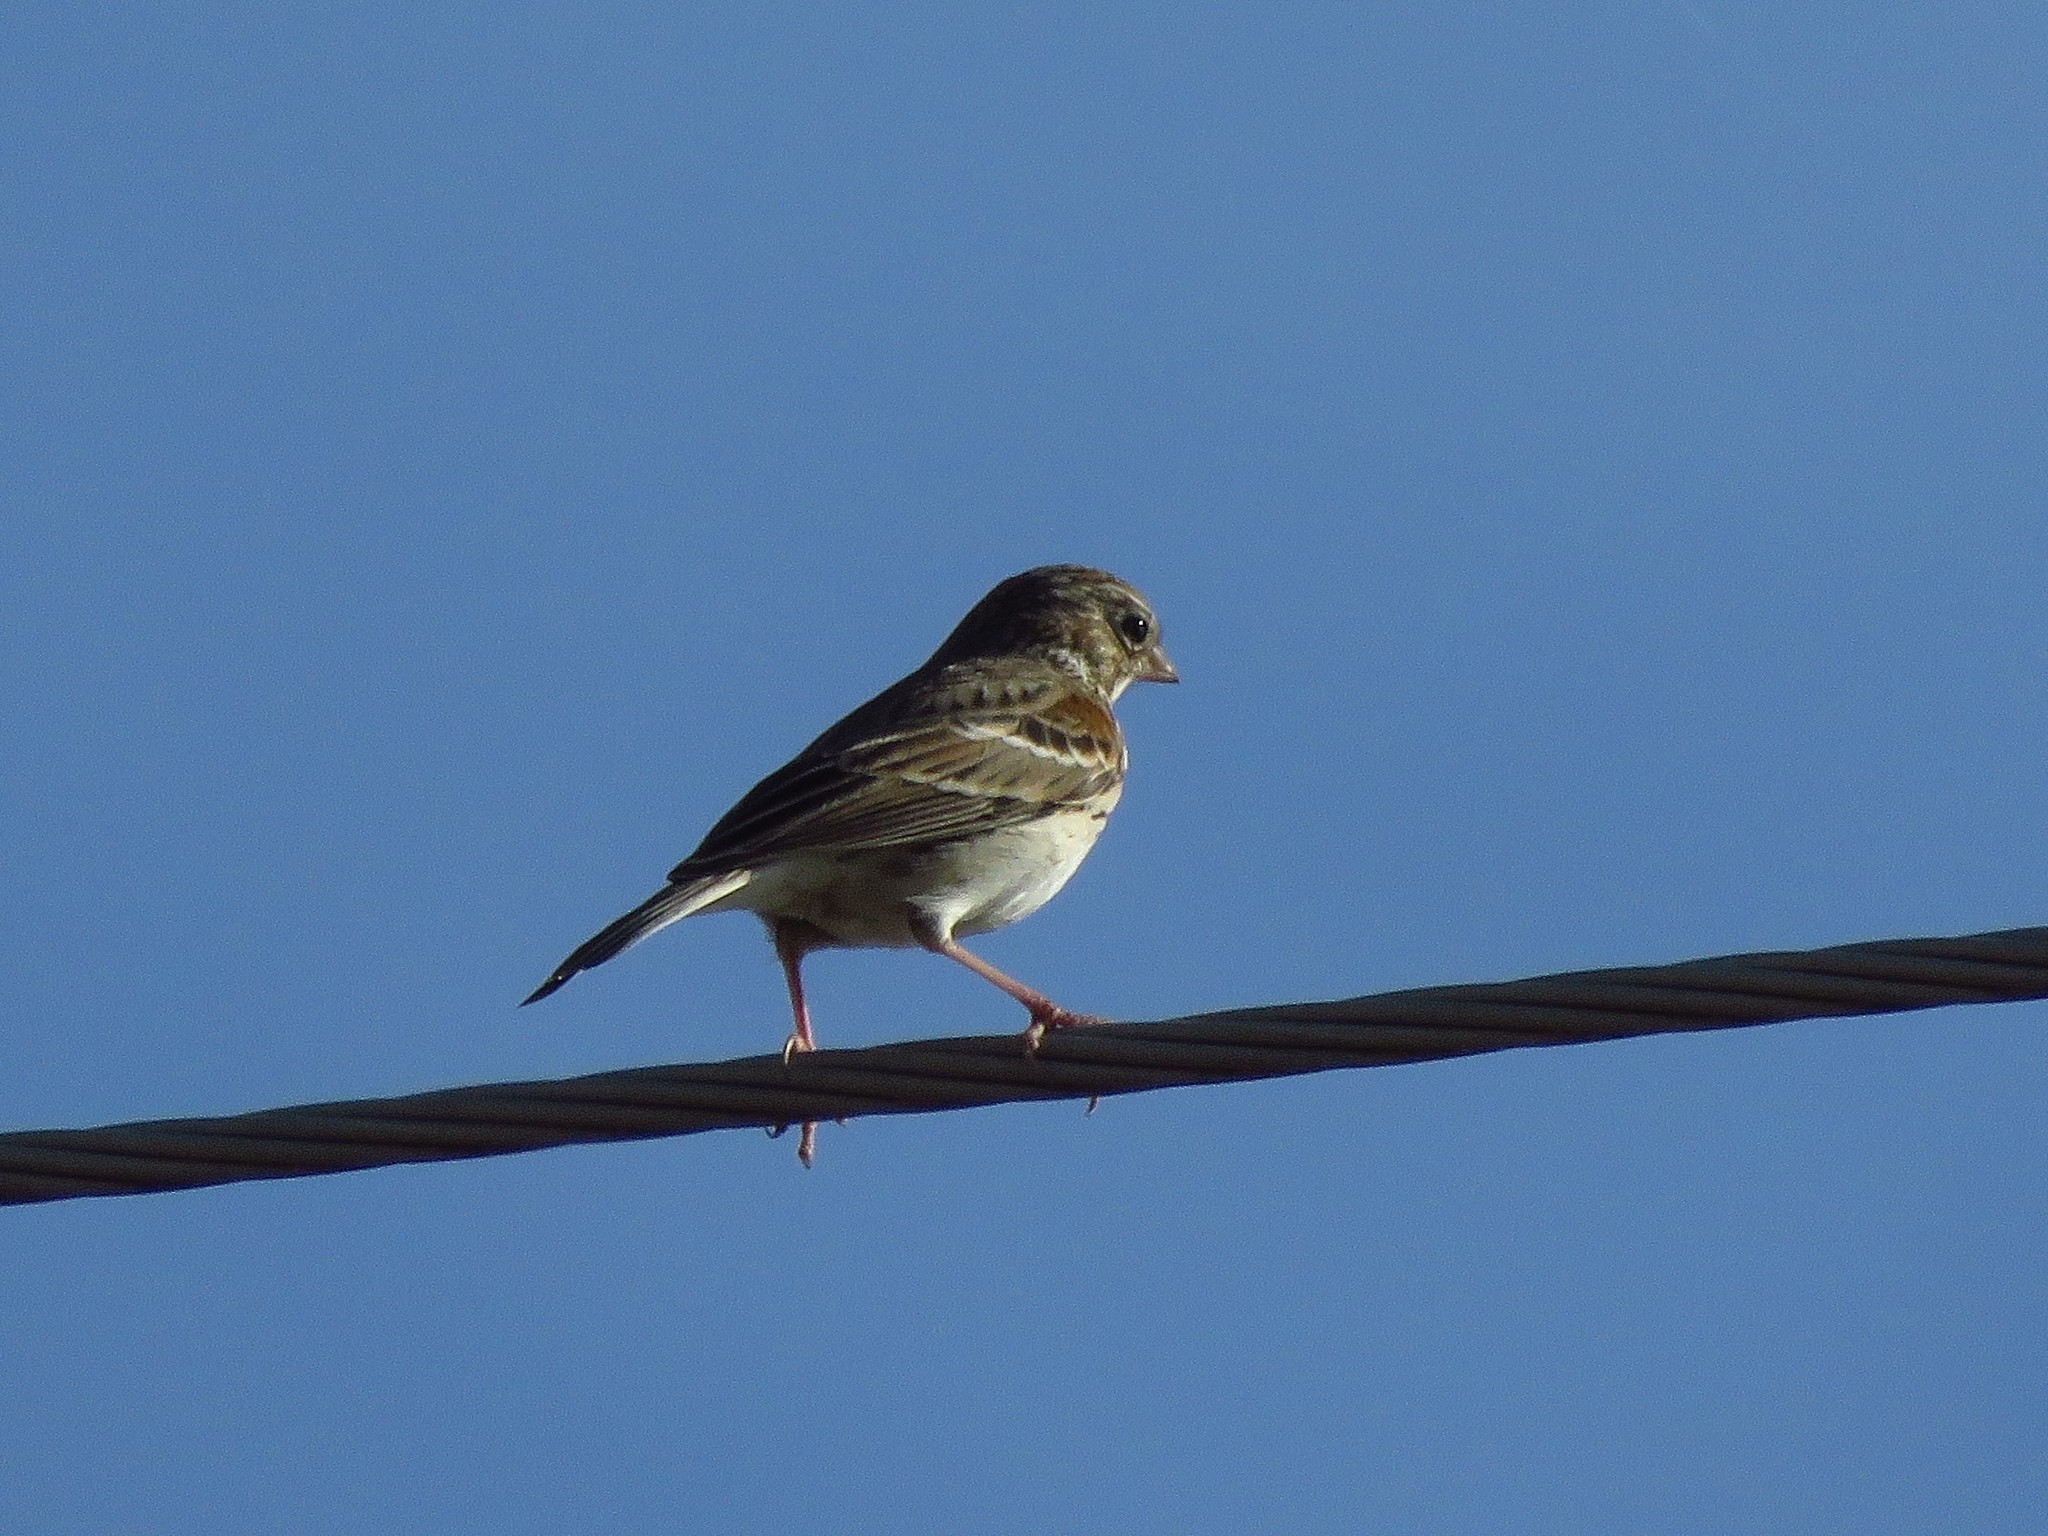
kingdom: Animalia
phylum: Chordata
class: Aves
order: Passeriformes
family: Passerellidae
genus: Pooecetes
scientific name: Pooecetes gramineus
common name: Vesper sparrow
